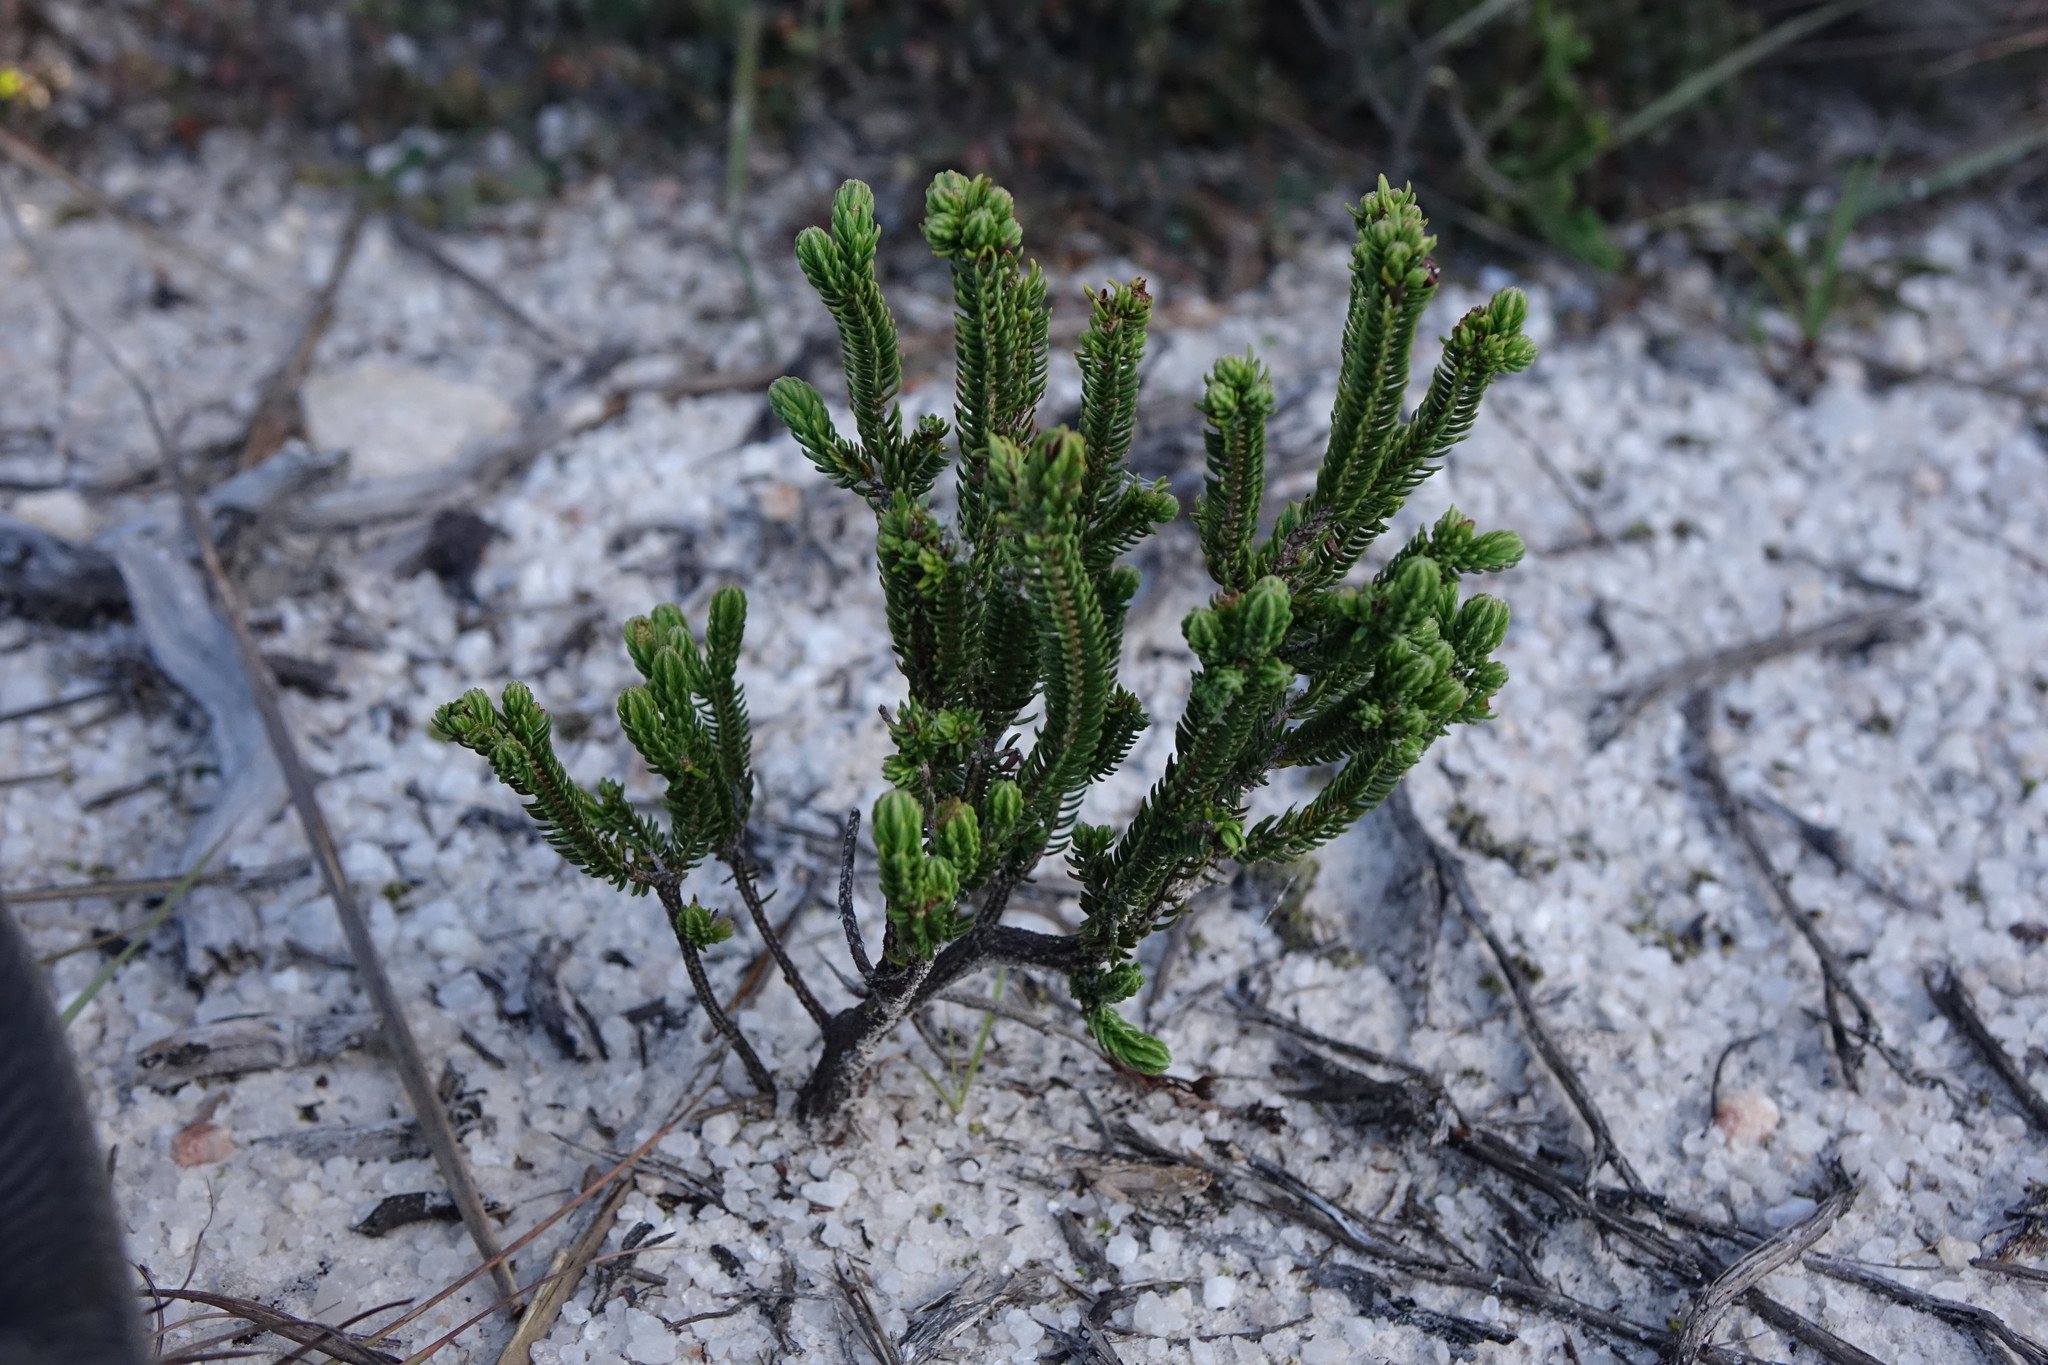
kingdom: Plantae
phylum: Tracheophyta
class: Magnoliopsida
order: Ericales
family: Ericaceae
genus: Erica
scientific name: Erica densata
